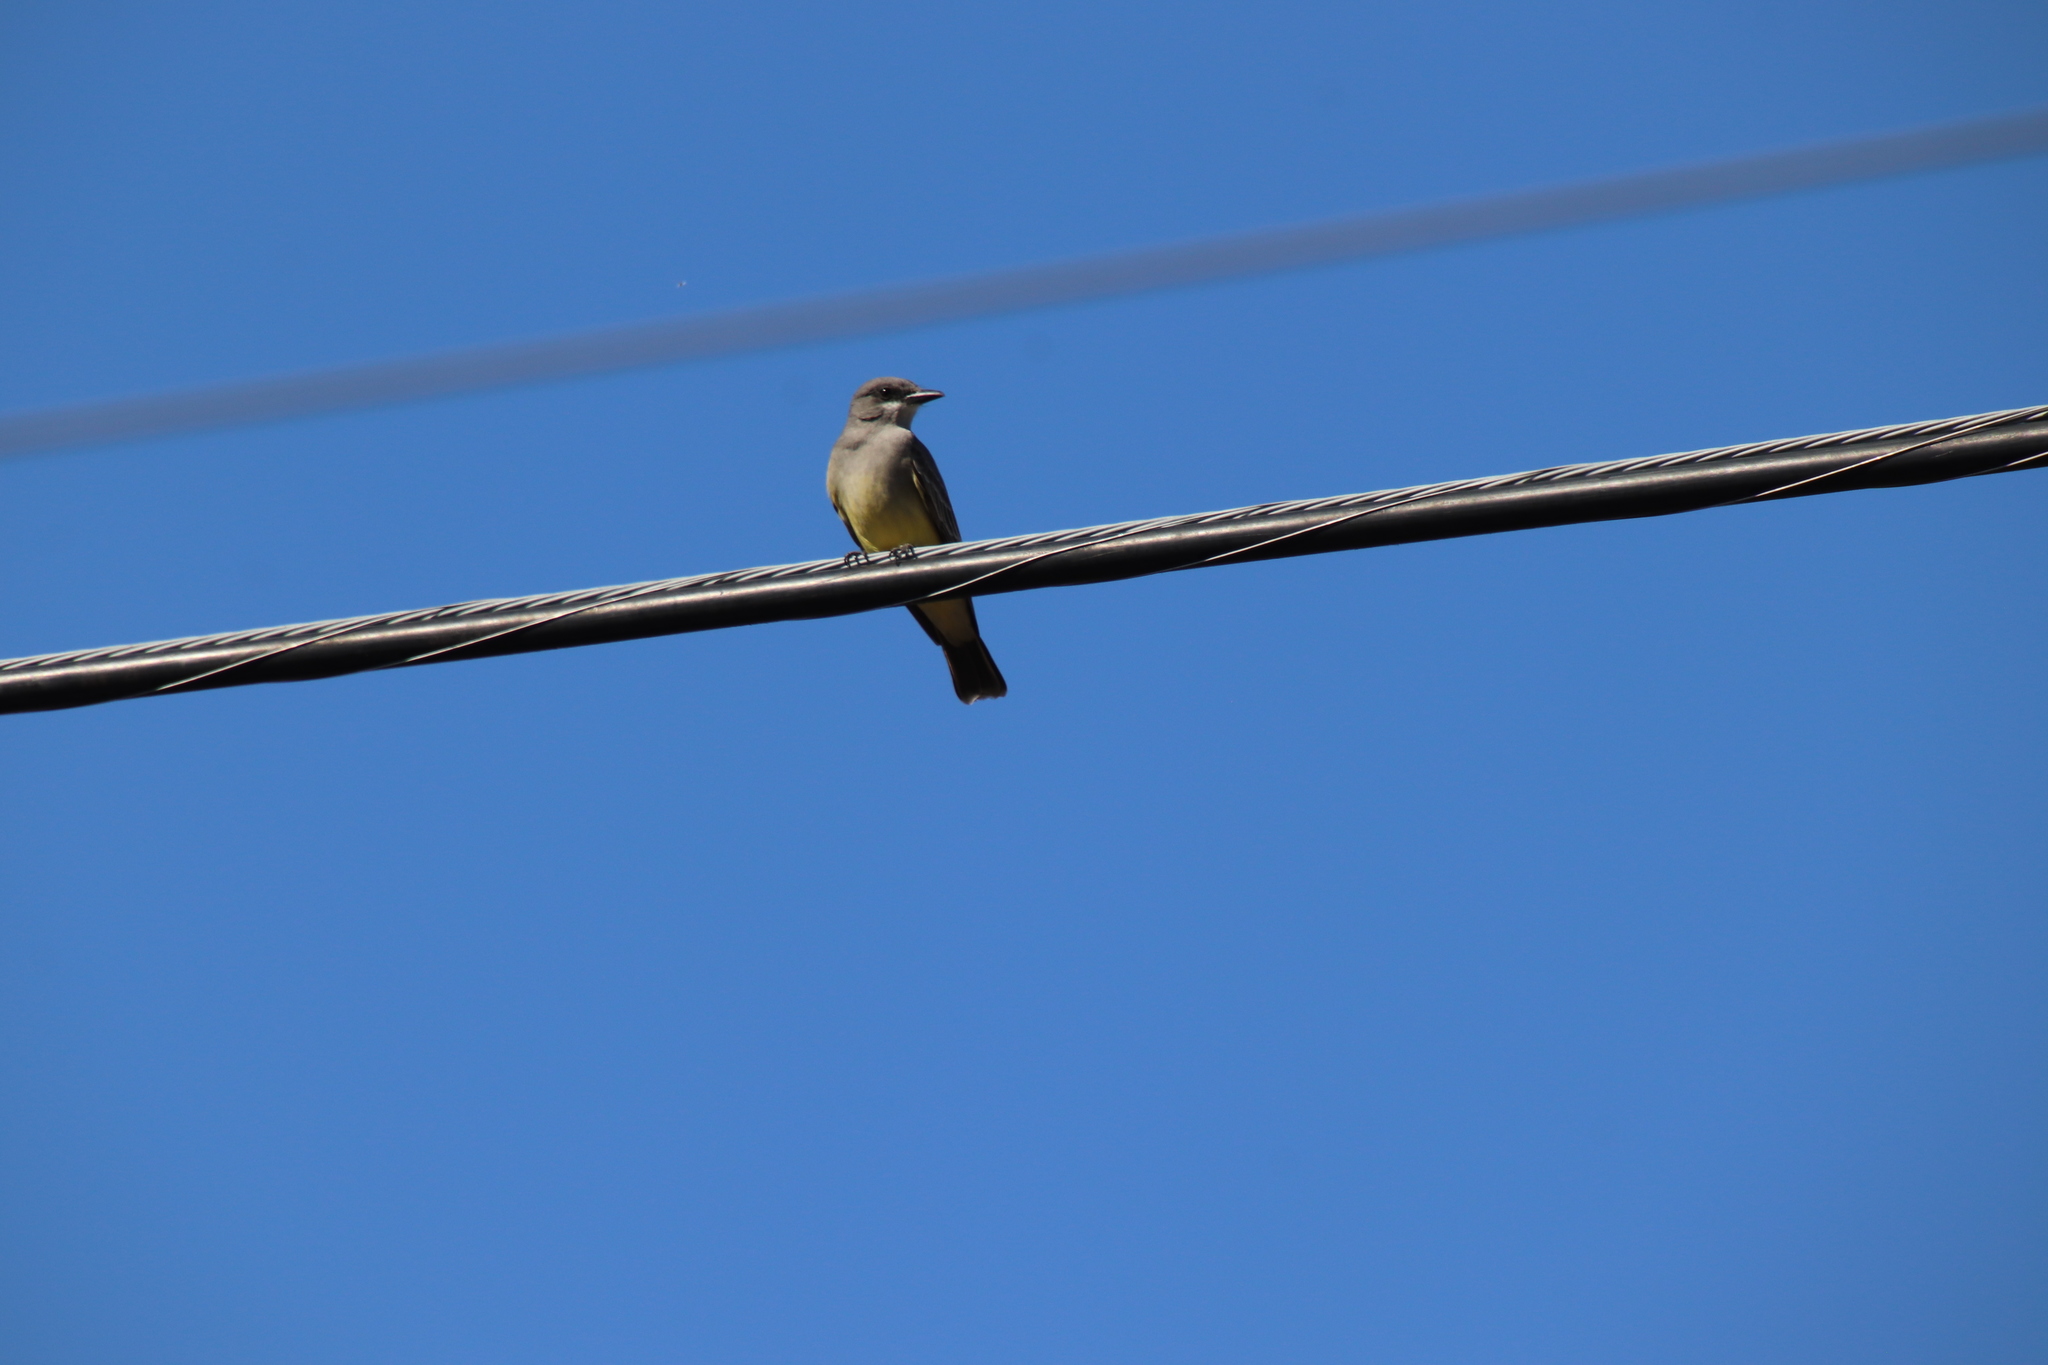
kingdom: Animalia
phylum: Chordata
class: Aves
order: Passeriformes
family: Tyrannidae
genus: Tyrannus
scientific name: Tyrannus vociferans
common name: Cassin's kingbird
